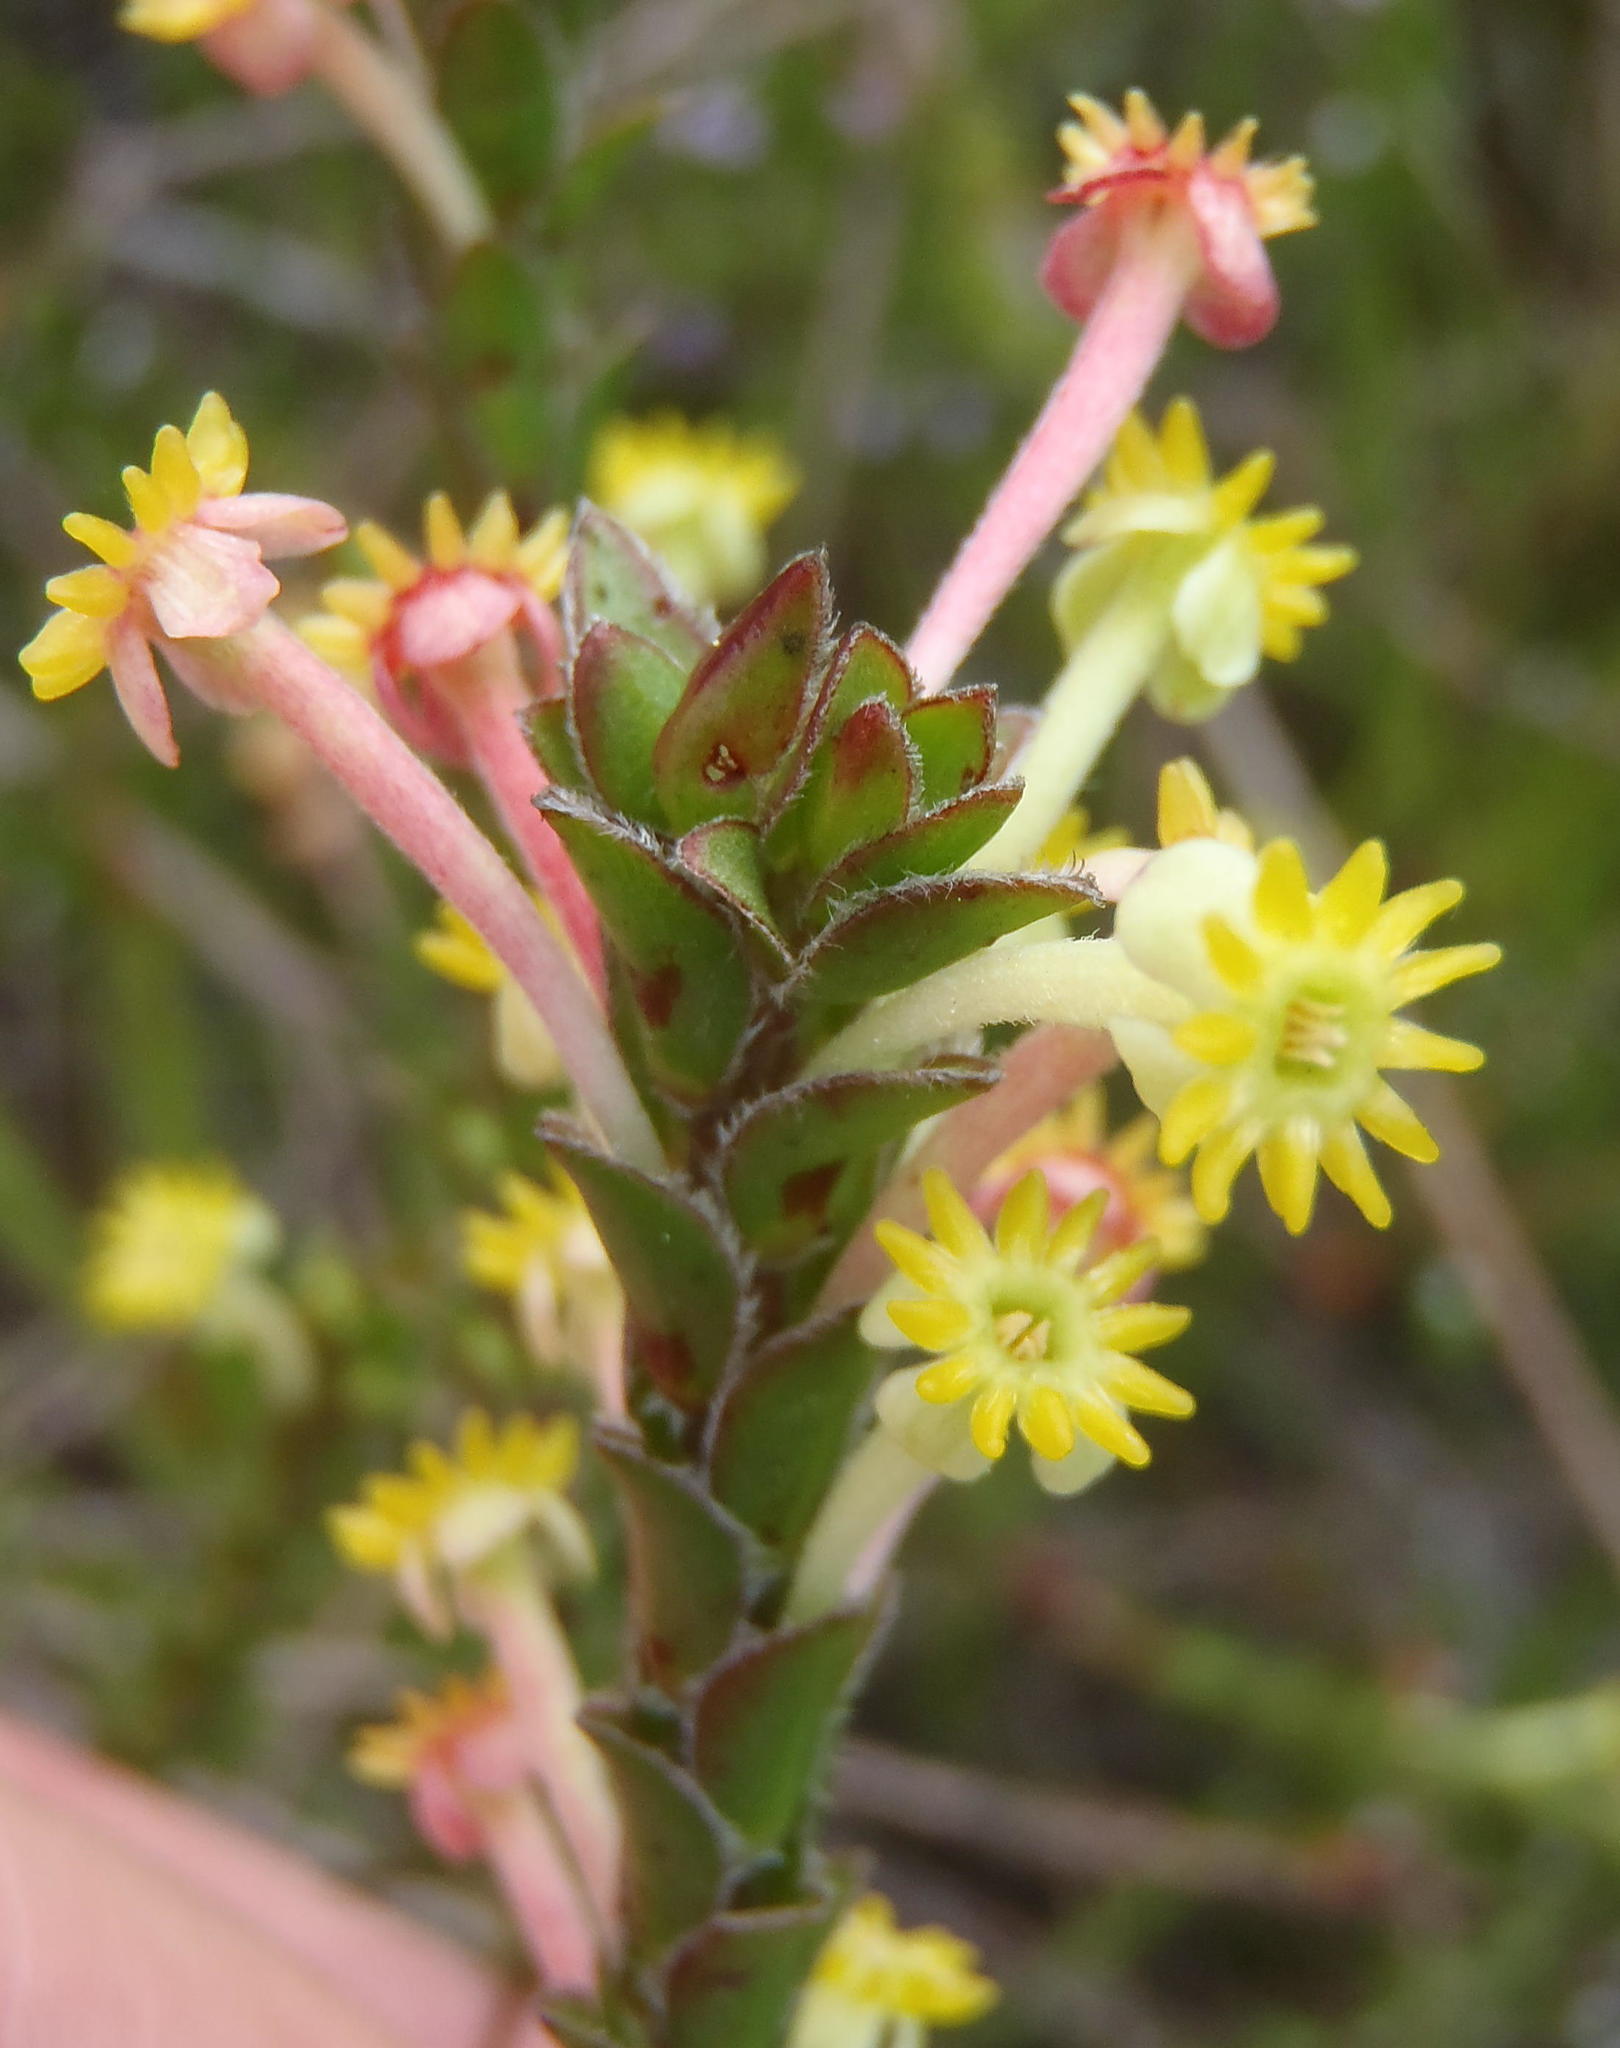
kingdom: Plantae
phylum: Tracheophyta
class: Magnoliopsida
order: Malvales
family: Thymelaeaceae
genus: Struthiola
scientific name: Struthiola argentea
